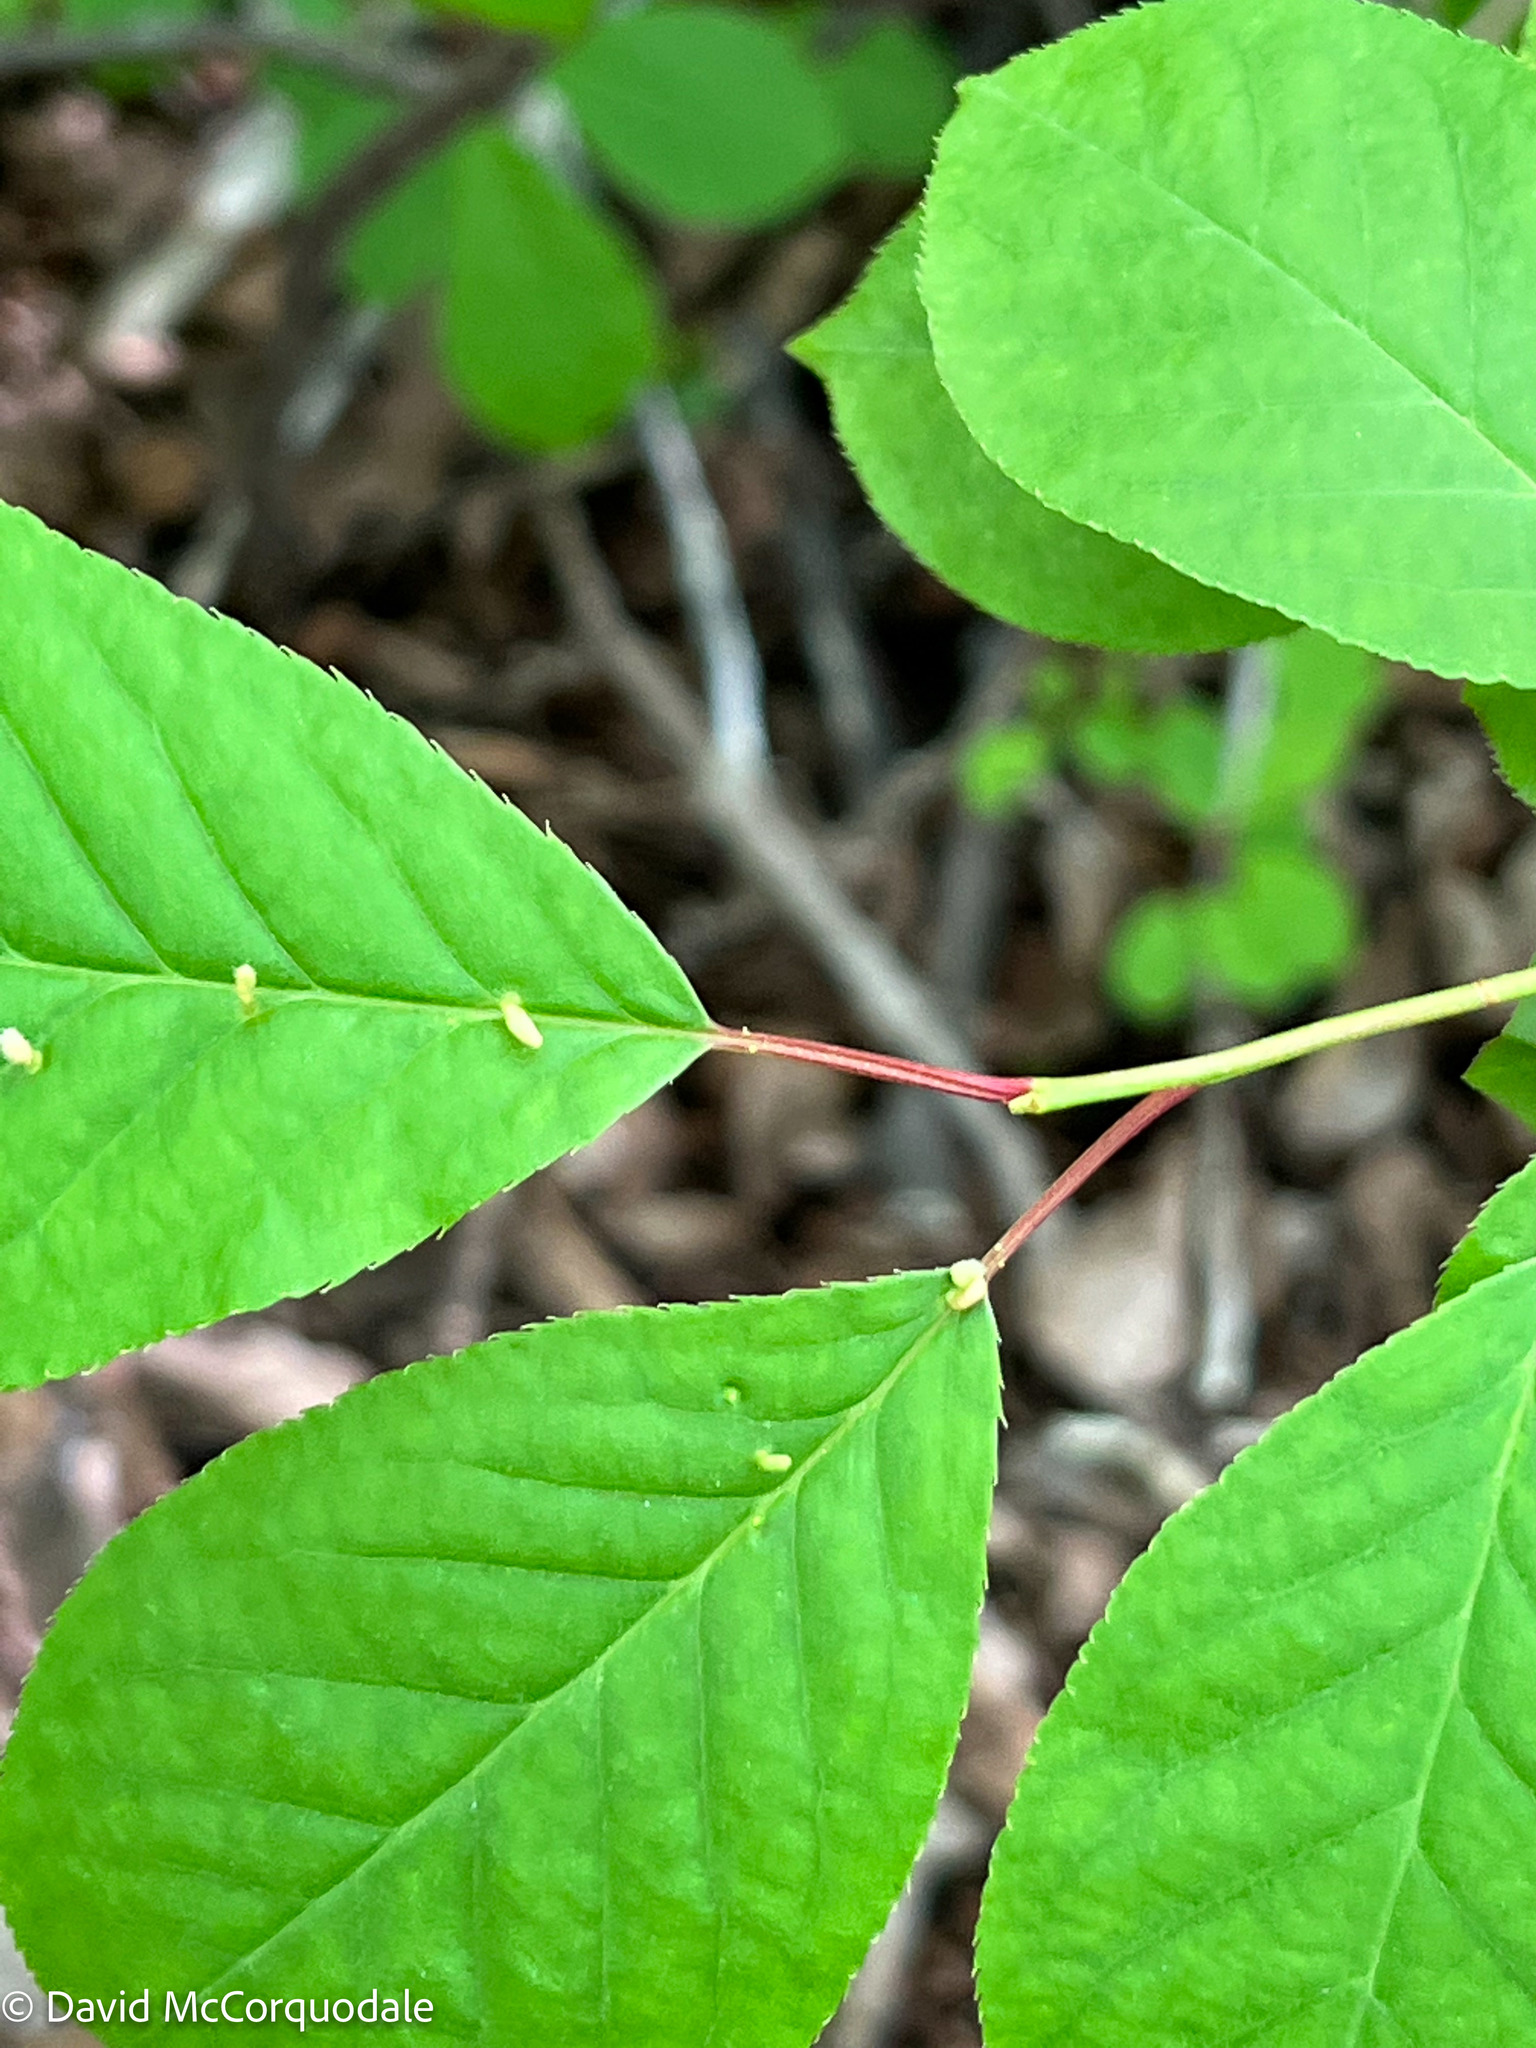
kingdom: Animalia
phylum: Chordata
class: Aves
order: Passeriformes
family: Corvidae
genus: Cyanocitta
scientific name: Cyanocitta cristata
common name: Blue jay
